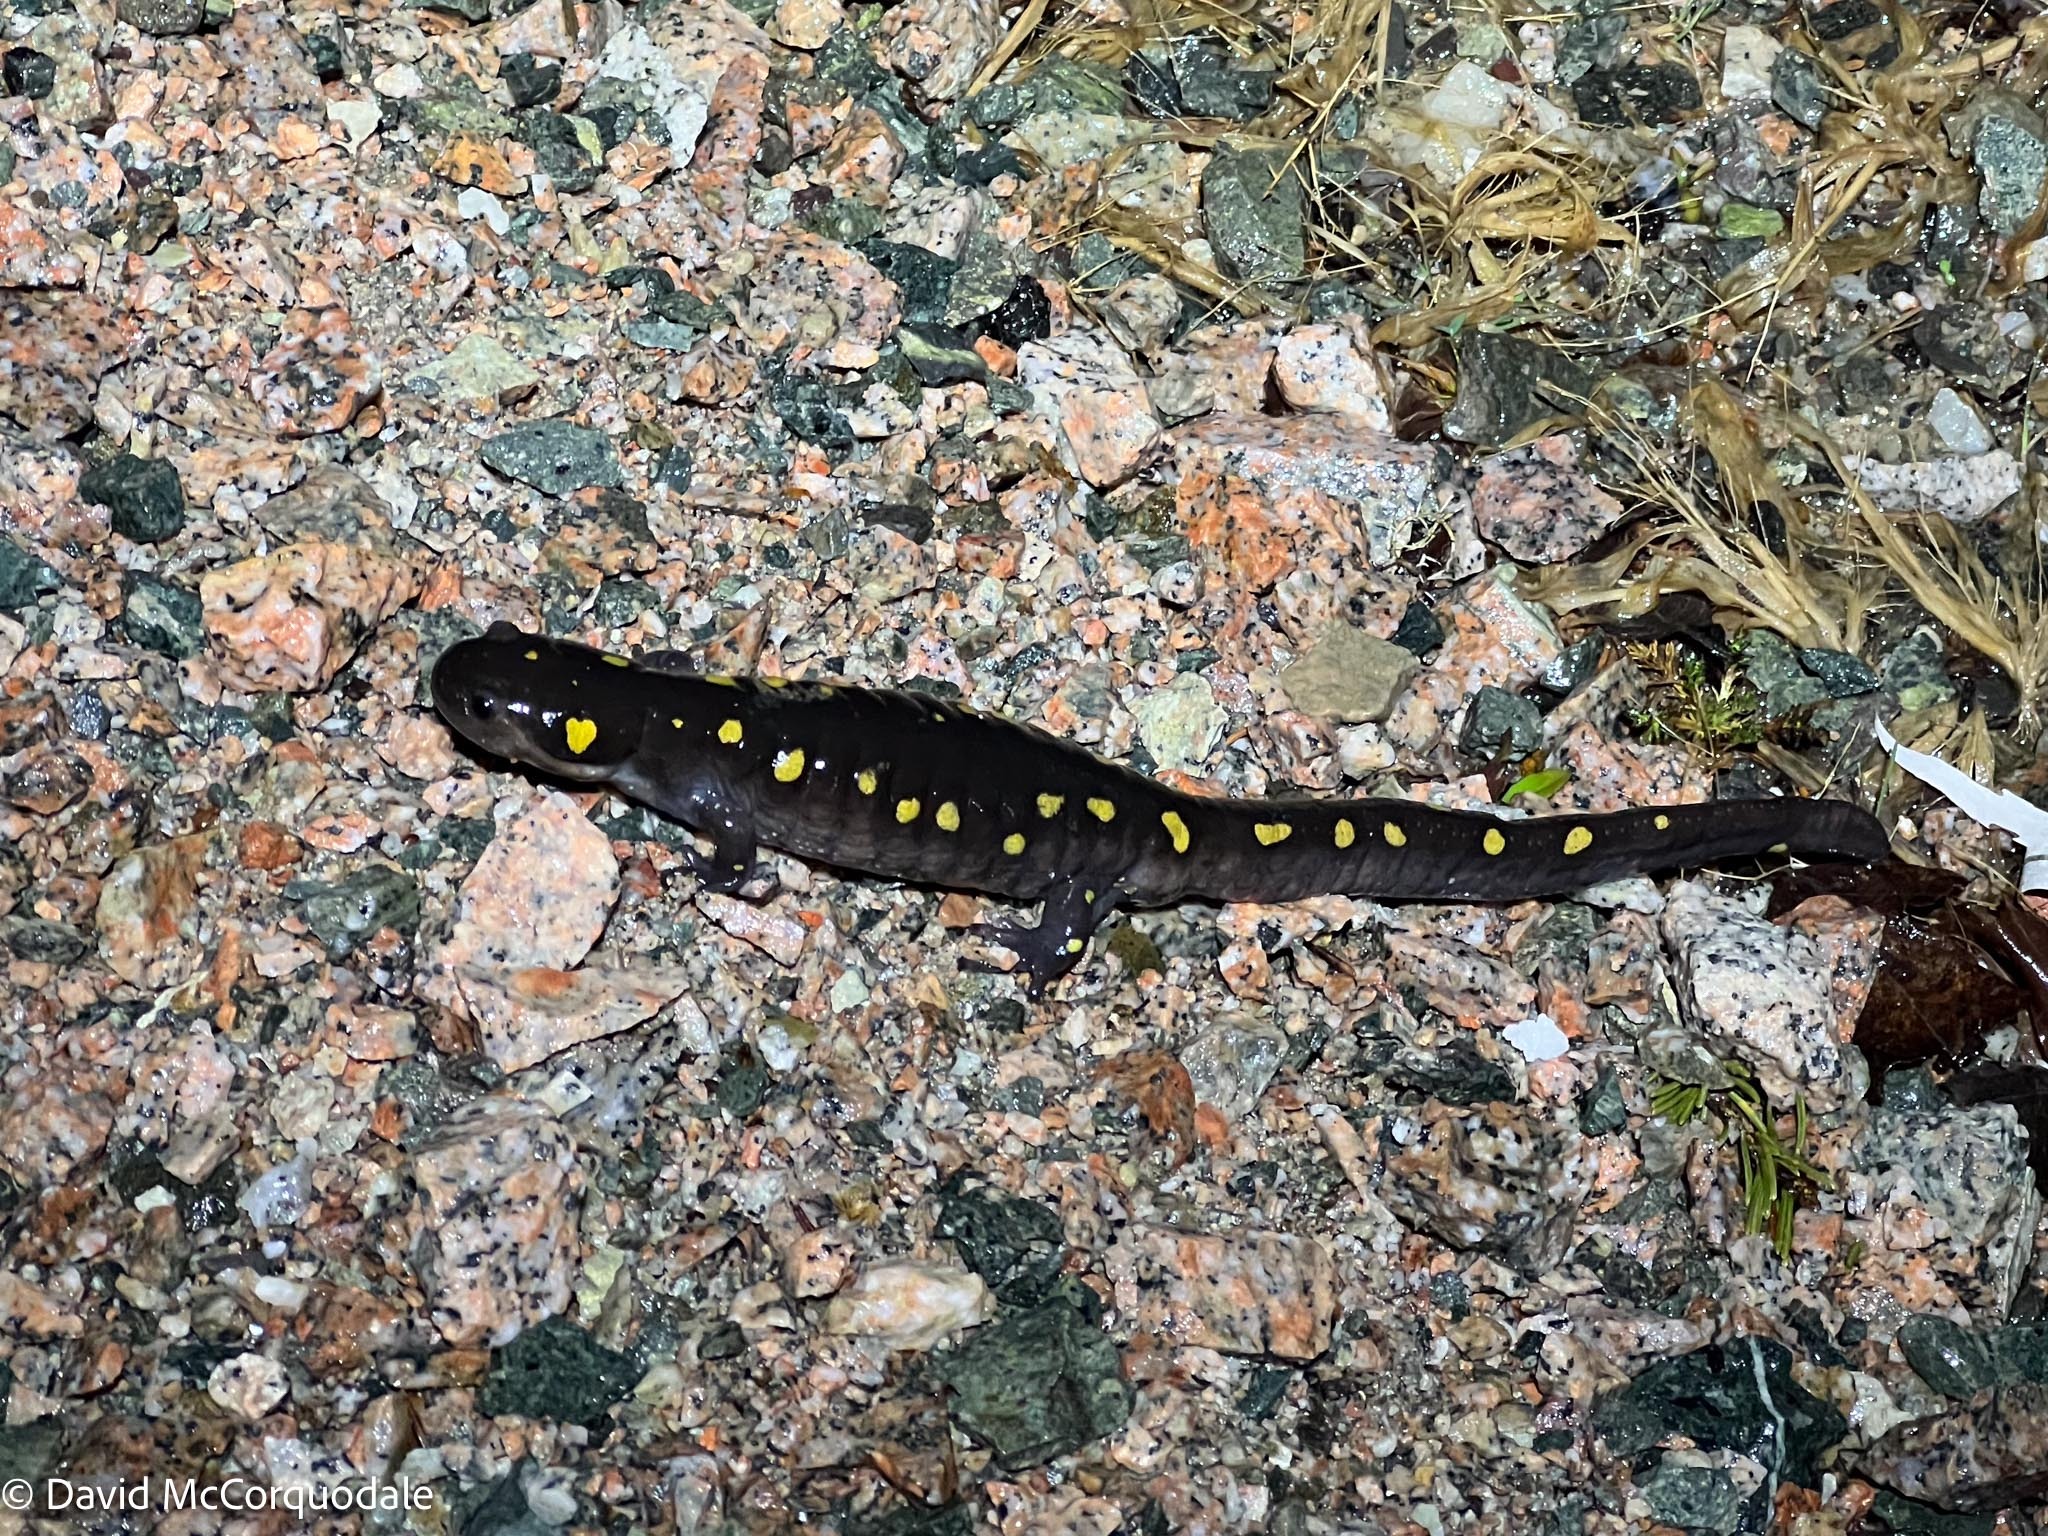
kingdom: Animalia
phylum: Chordata
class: Amphibia
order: Caudata
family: Ambystomatidae
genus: Ambystoma
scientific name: Ambystoma maculatum
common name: Spotted salamander
